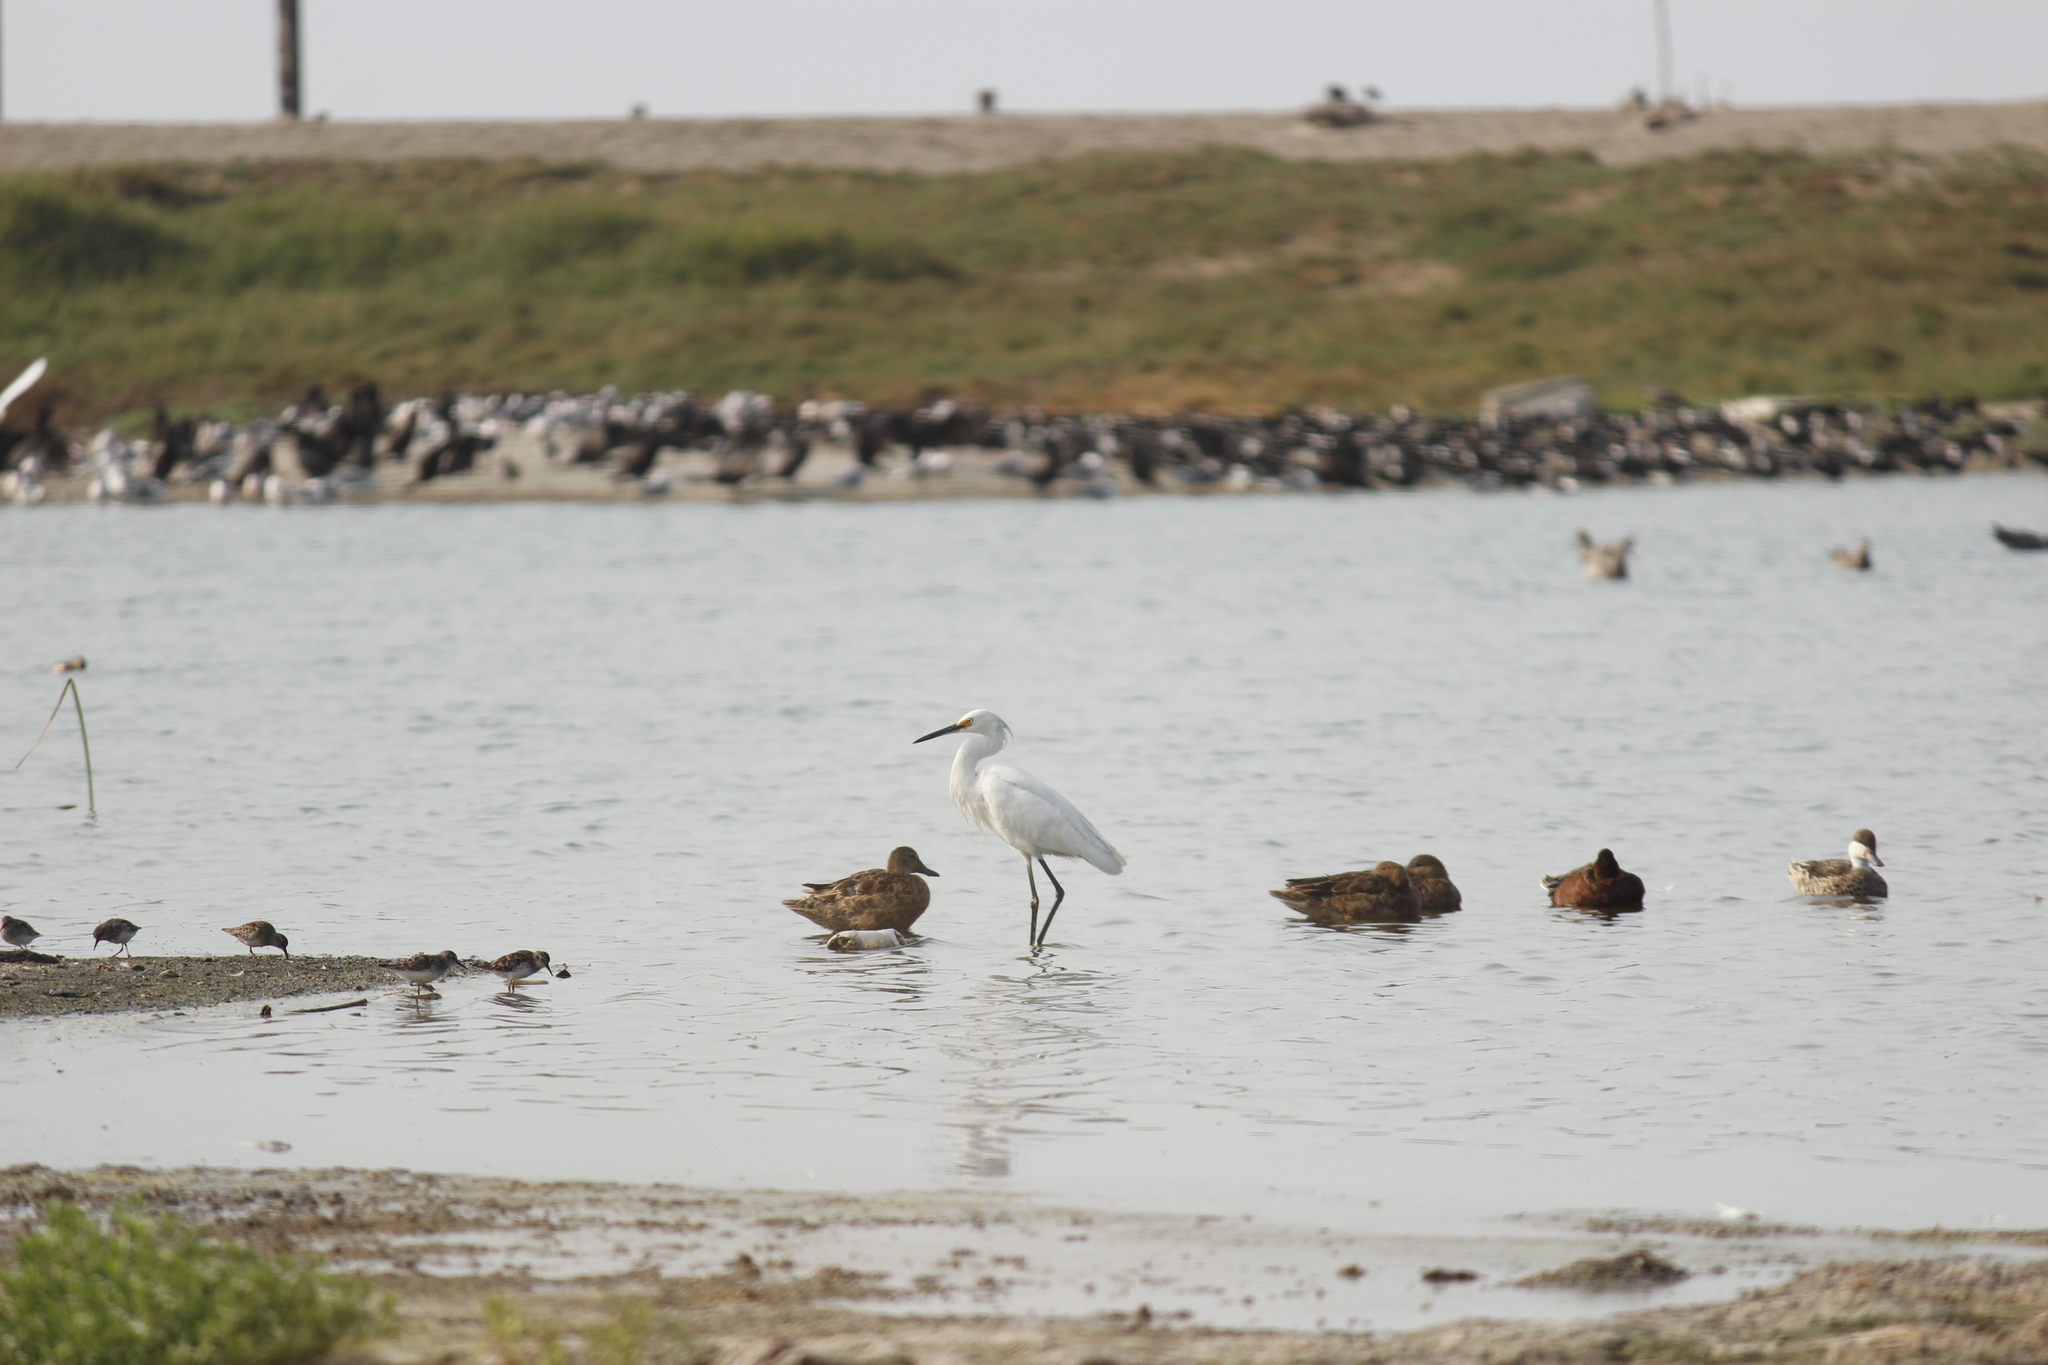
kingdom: Animalia
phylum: Chordata
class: Aves
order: Pelecaniformes
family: Ardeidae
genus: Egretta
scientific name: Egretta thula
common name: Snowy egret
